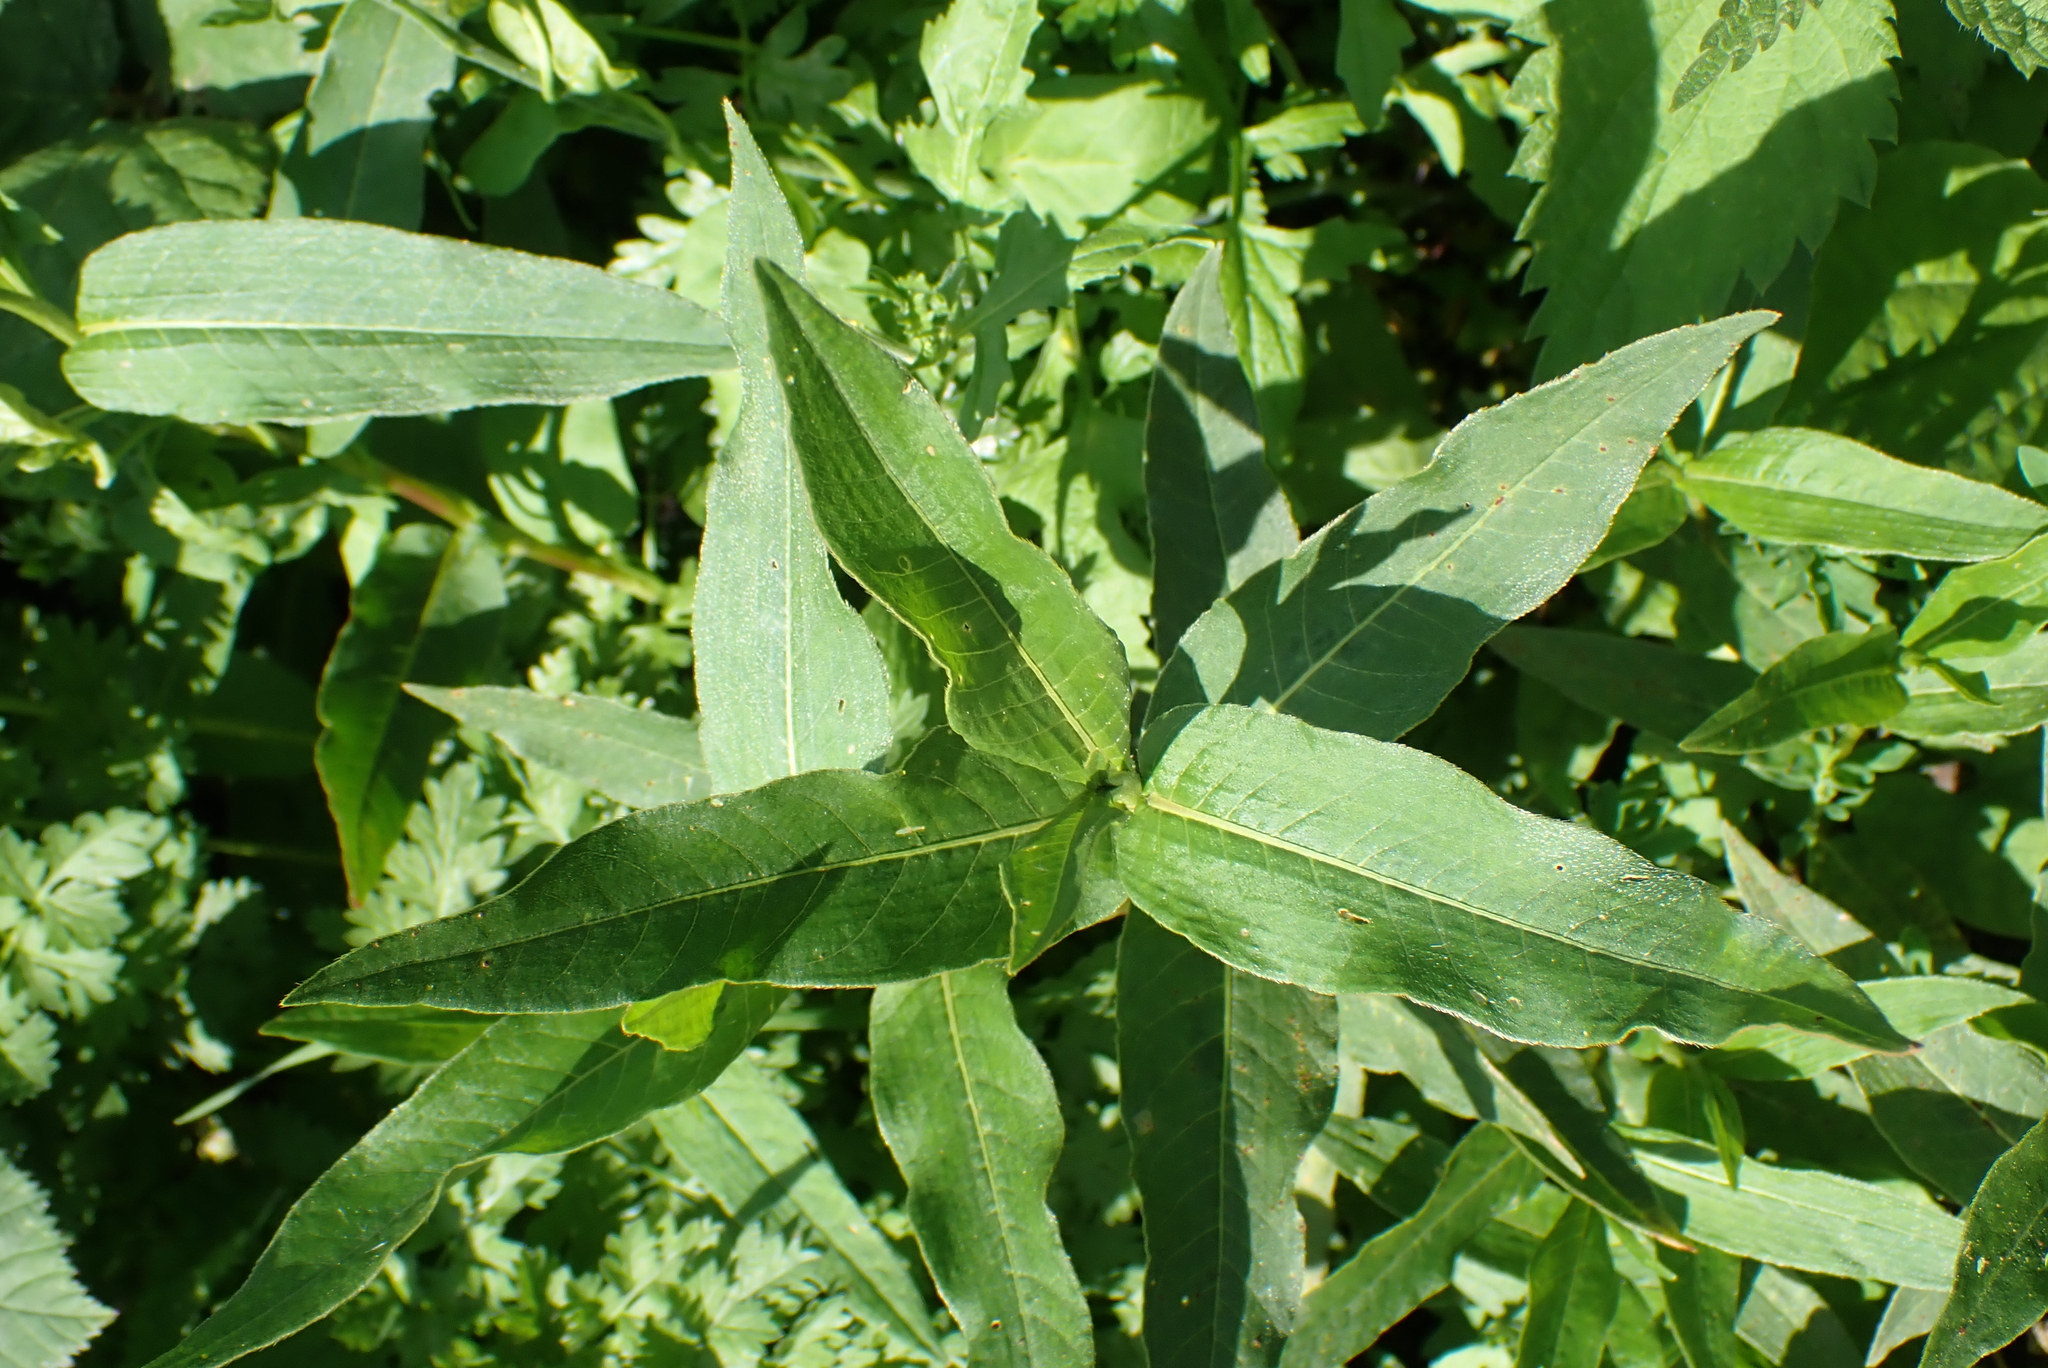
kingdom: Plantae
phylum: Tracheophyta
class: Magnoliopsida
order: Caryophyllales
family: Polygonaceae
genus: Persicaria
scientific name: Persicaria amphibia
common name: Amphibious bistort
